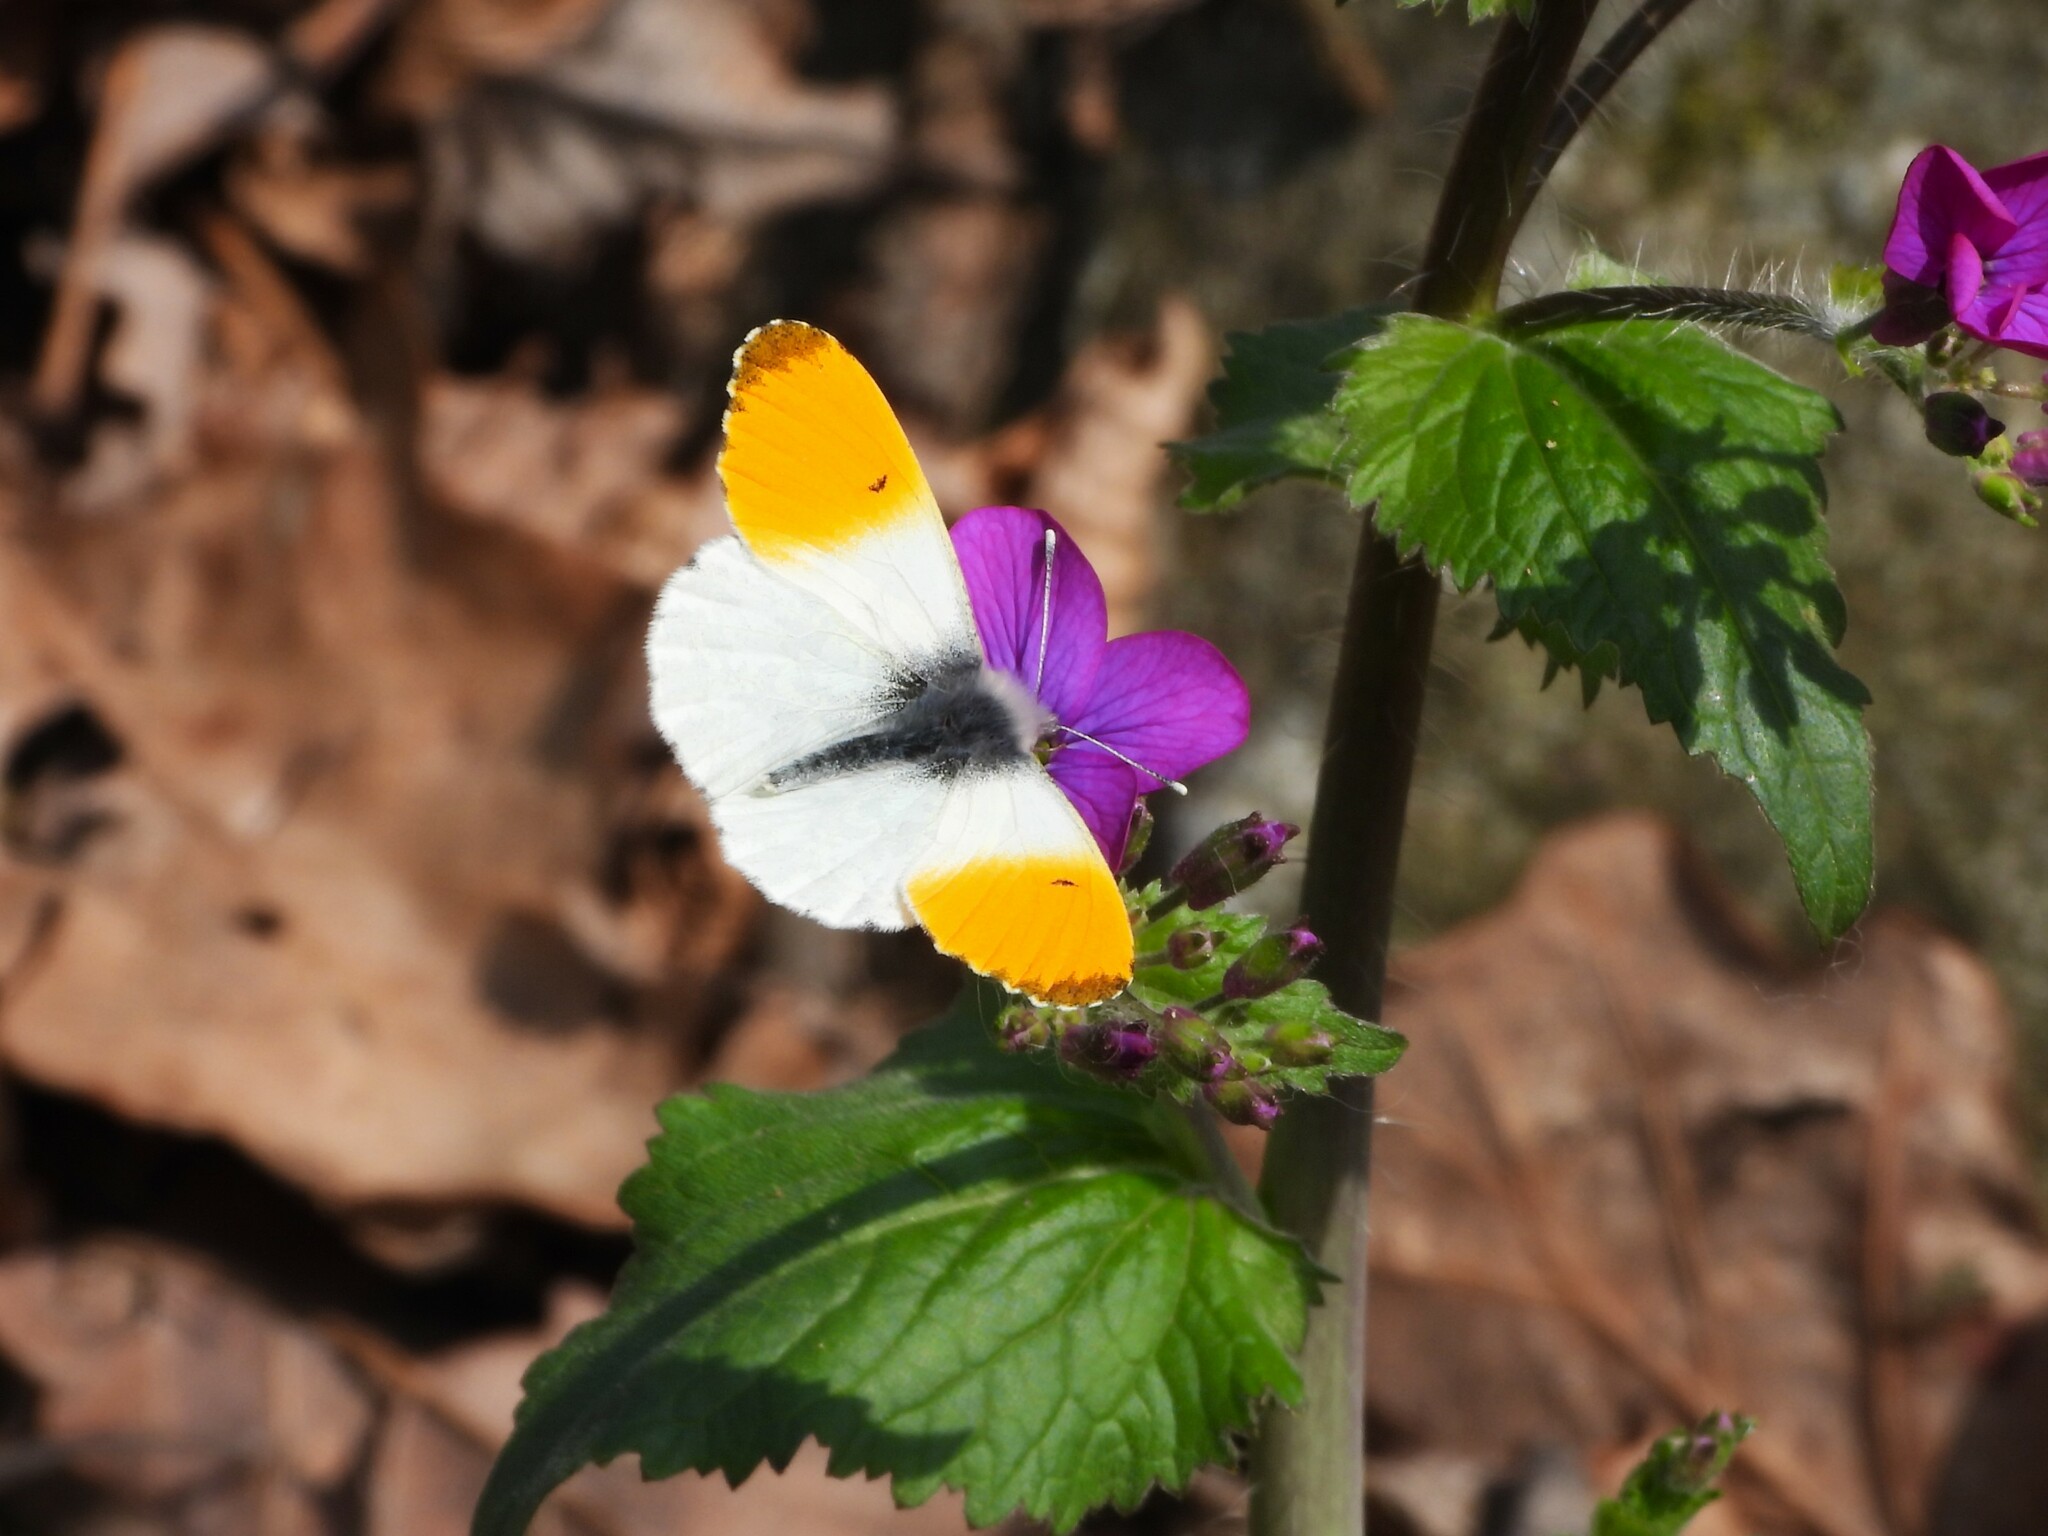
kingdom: Animalia
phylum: Arthropoda
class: Insecta
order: Lepidoptera
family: Pieridae
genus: Anthocharis
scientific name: Anthocharis cardamines
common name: Orange-tip
